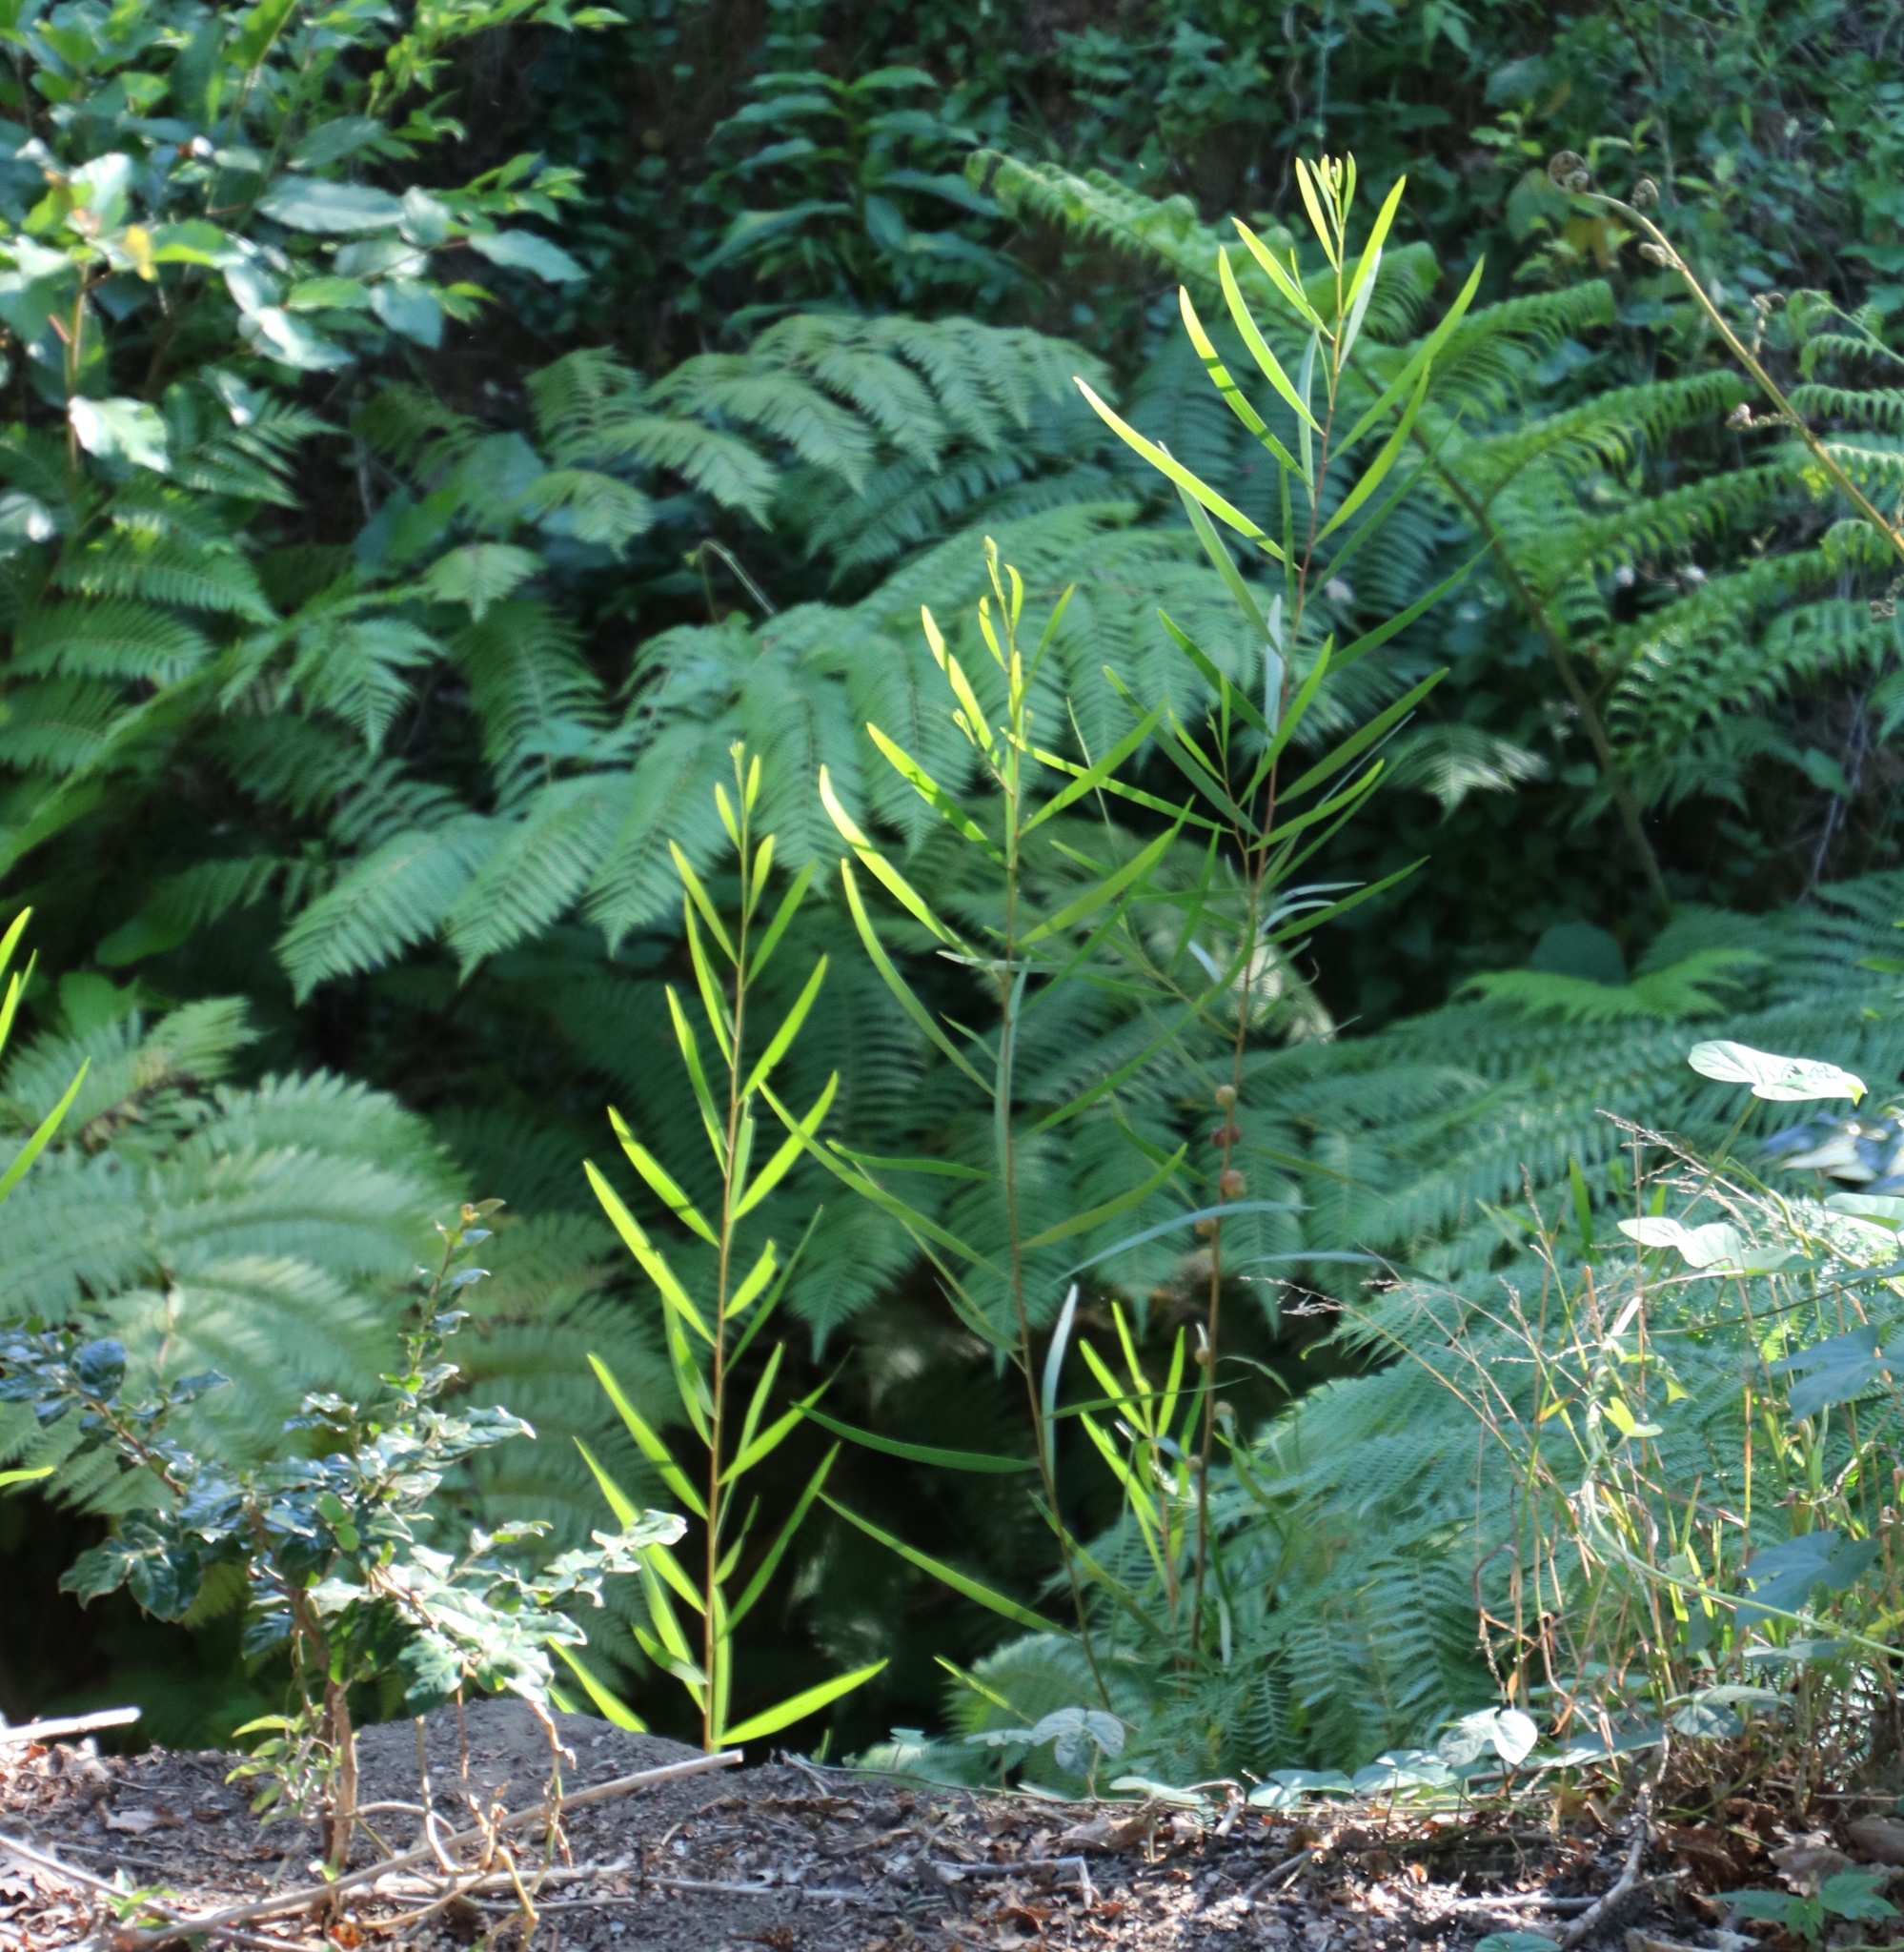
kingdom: Plantae
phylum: Tracheophyta
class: Magnoliopsida
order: Fabales
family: Fabaceae
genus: Acacia
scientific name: Acacia longifolia
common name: Sydney golden wattle
